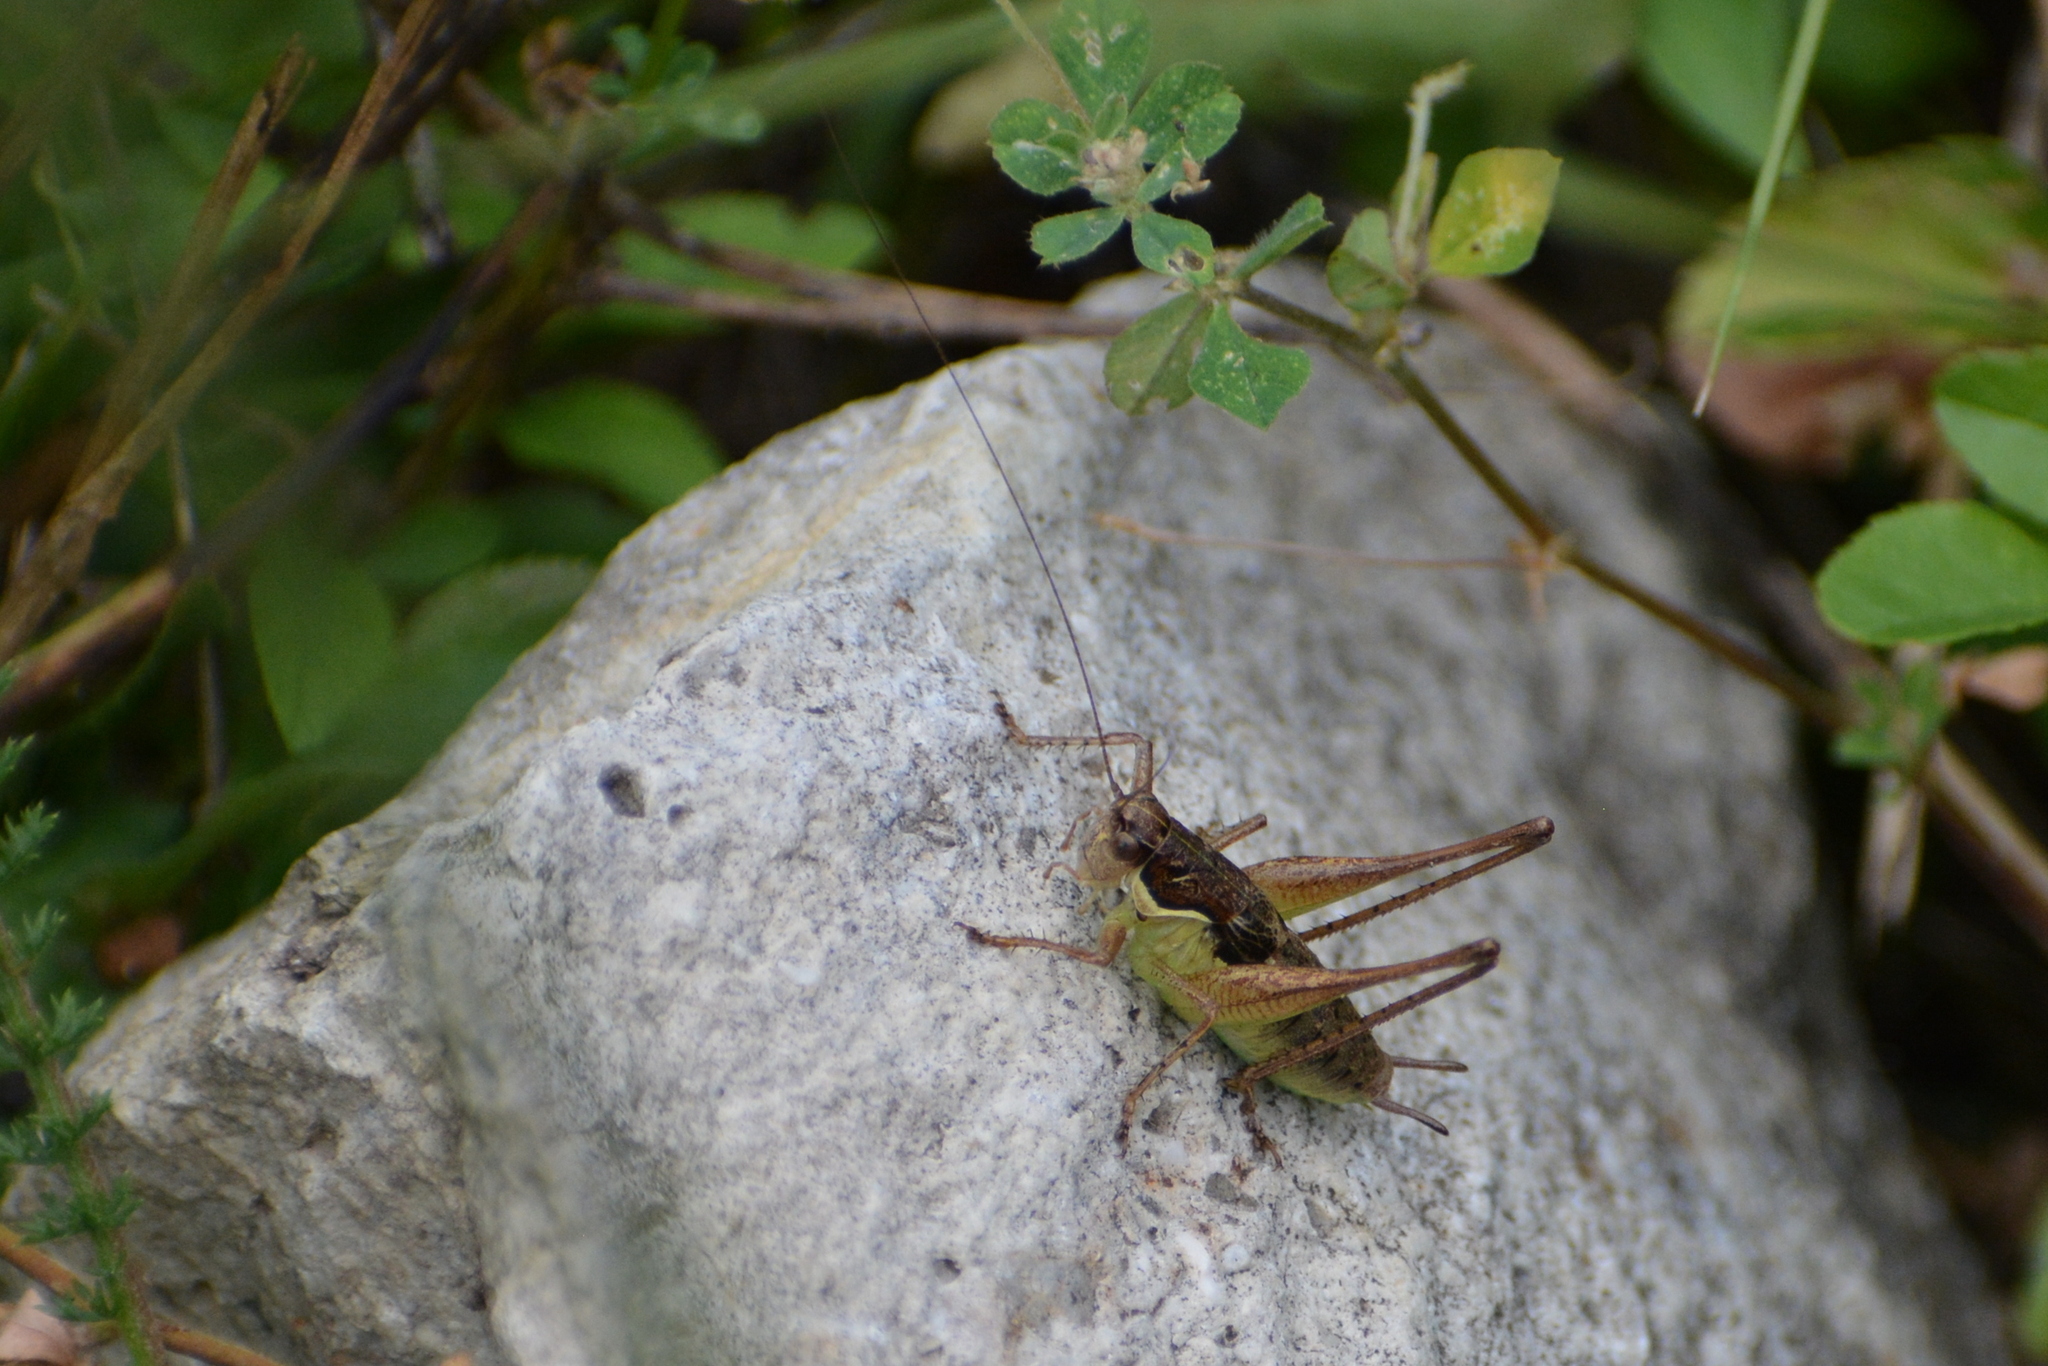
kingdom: Animalia
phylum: Arthropoda
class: Insecta
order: Orthoptera
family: Tettigoniidae
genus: Pachytrachis
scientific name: Pachytrachis gracilis
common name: Graceful bush-cricket
